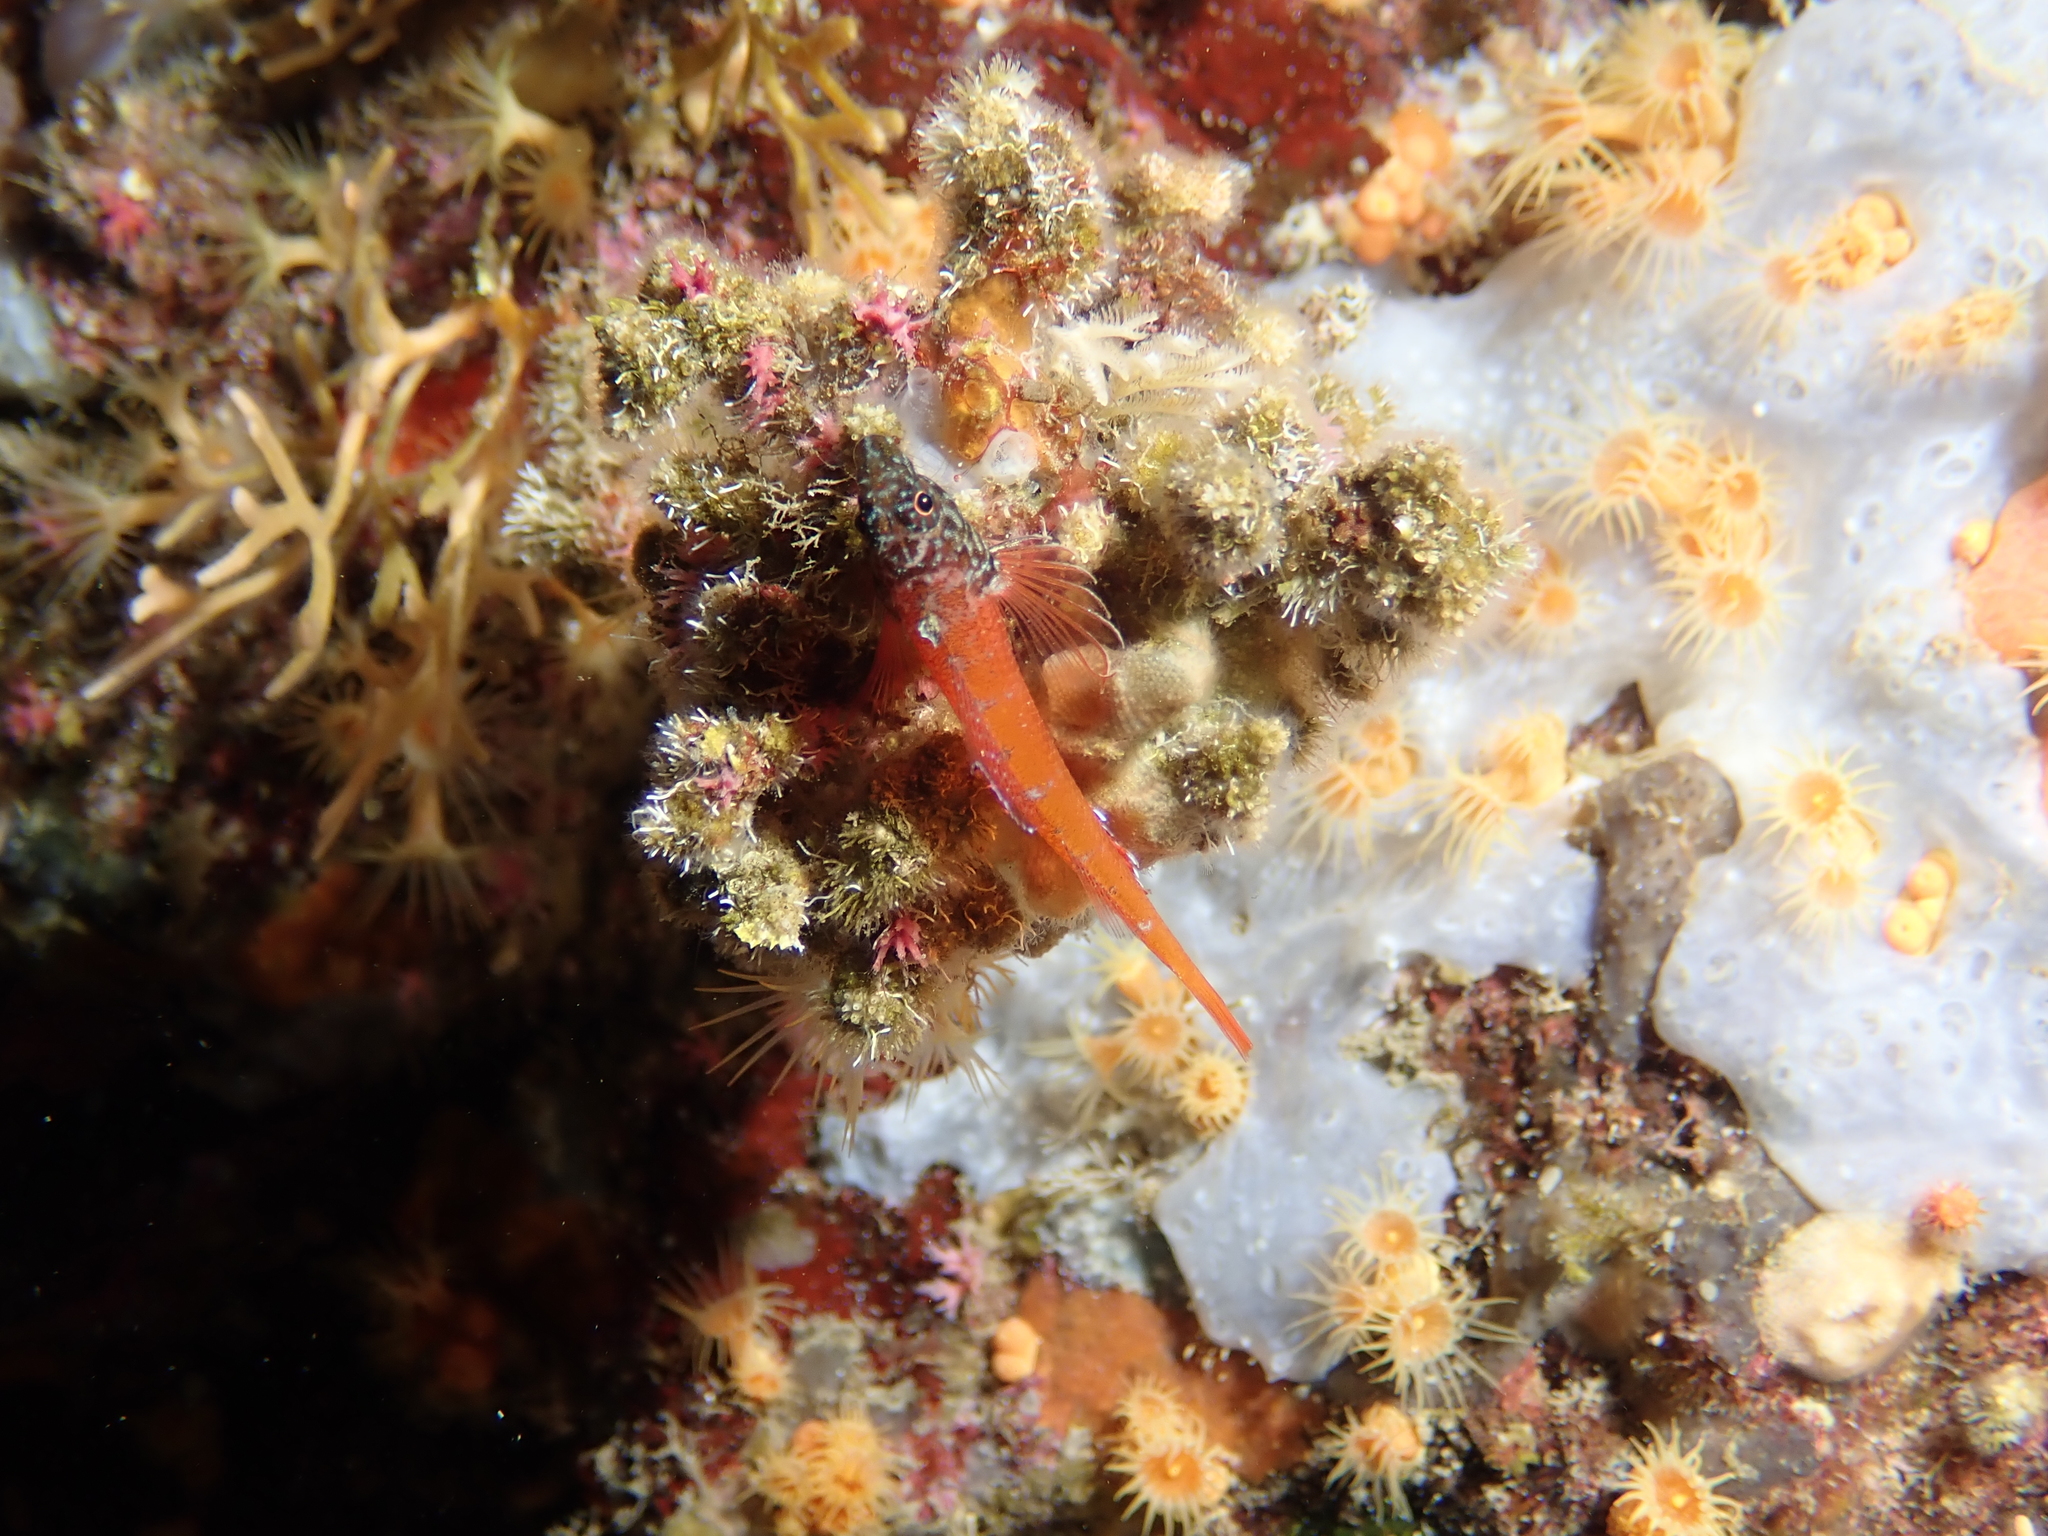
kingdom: Animalia
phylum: Chordata
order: Perciformes
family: Tripterygiidae
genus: Tripterygion
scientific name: Tripterygion melanurum
